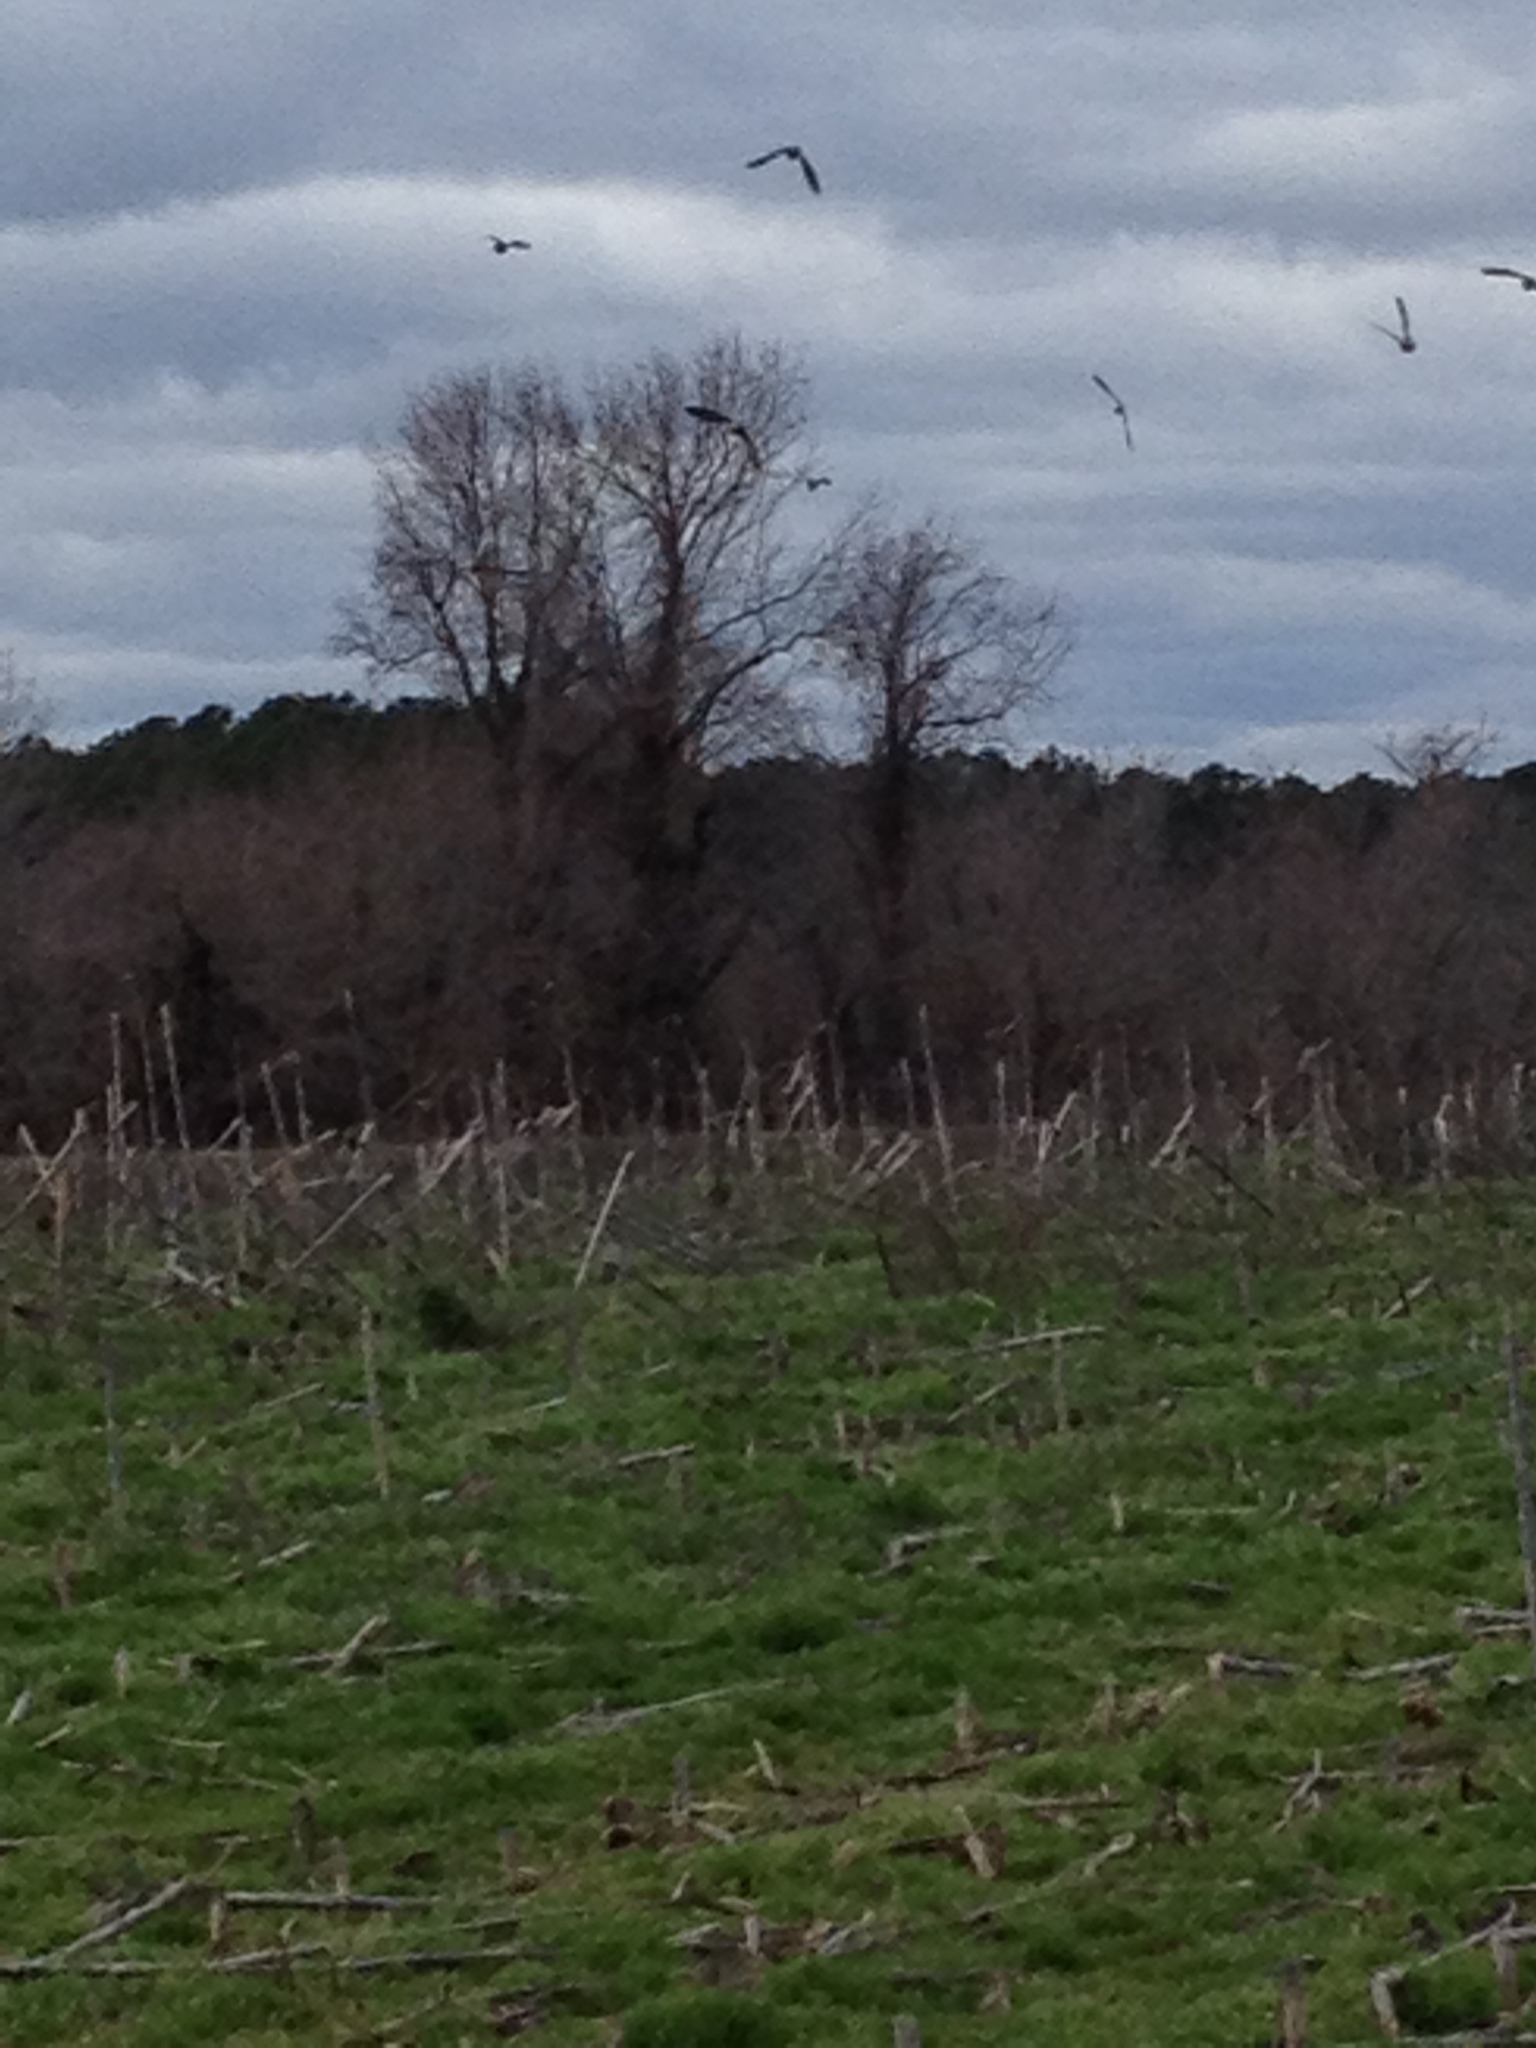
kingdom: Animalia
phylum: Chordata
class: Aves
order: Columbiformes
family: Columbidae
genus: Zenaida
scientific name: Zenaida macroura
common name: Mourning dove
